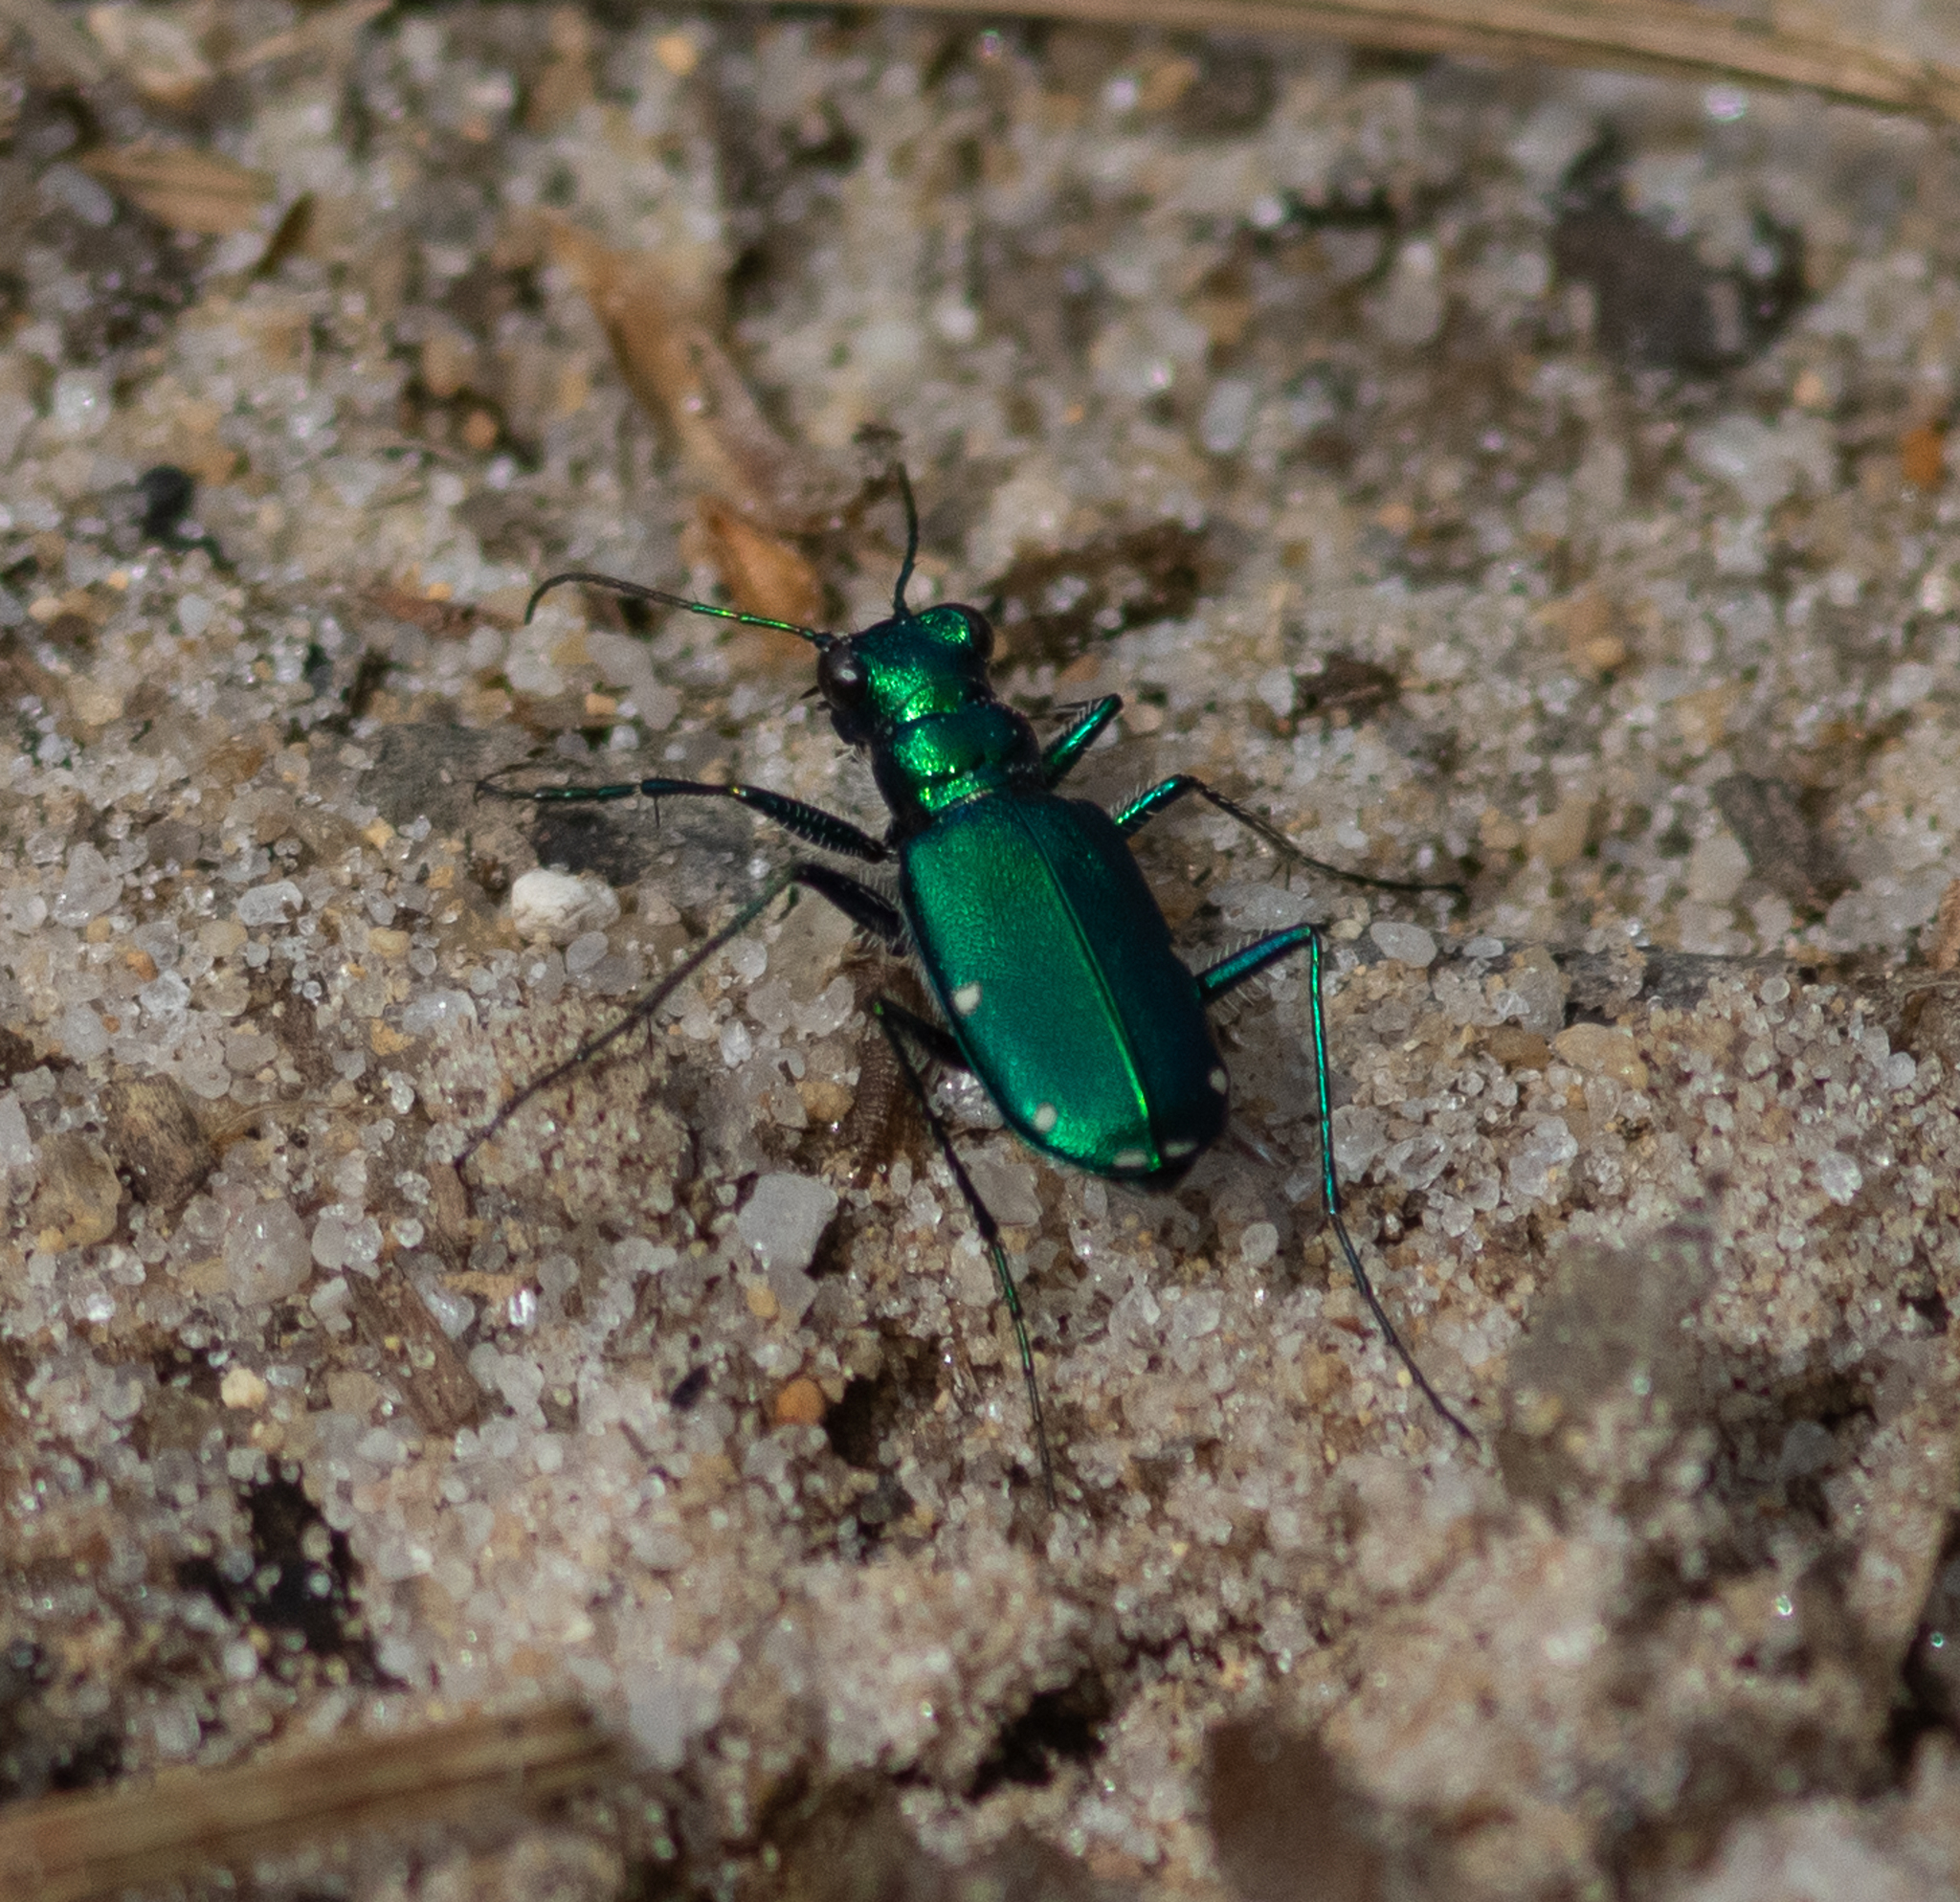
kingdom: Animalia
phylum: Arthropoda
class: Insecta
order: Coleoptera
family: Carabidae
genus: Cicindela
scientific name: Cicindela sexguttata
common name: Six-spotted tiger beetle
